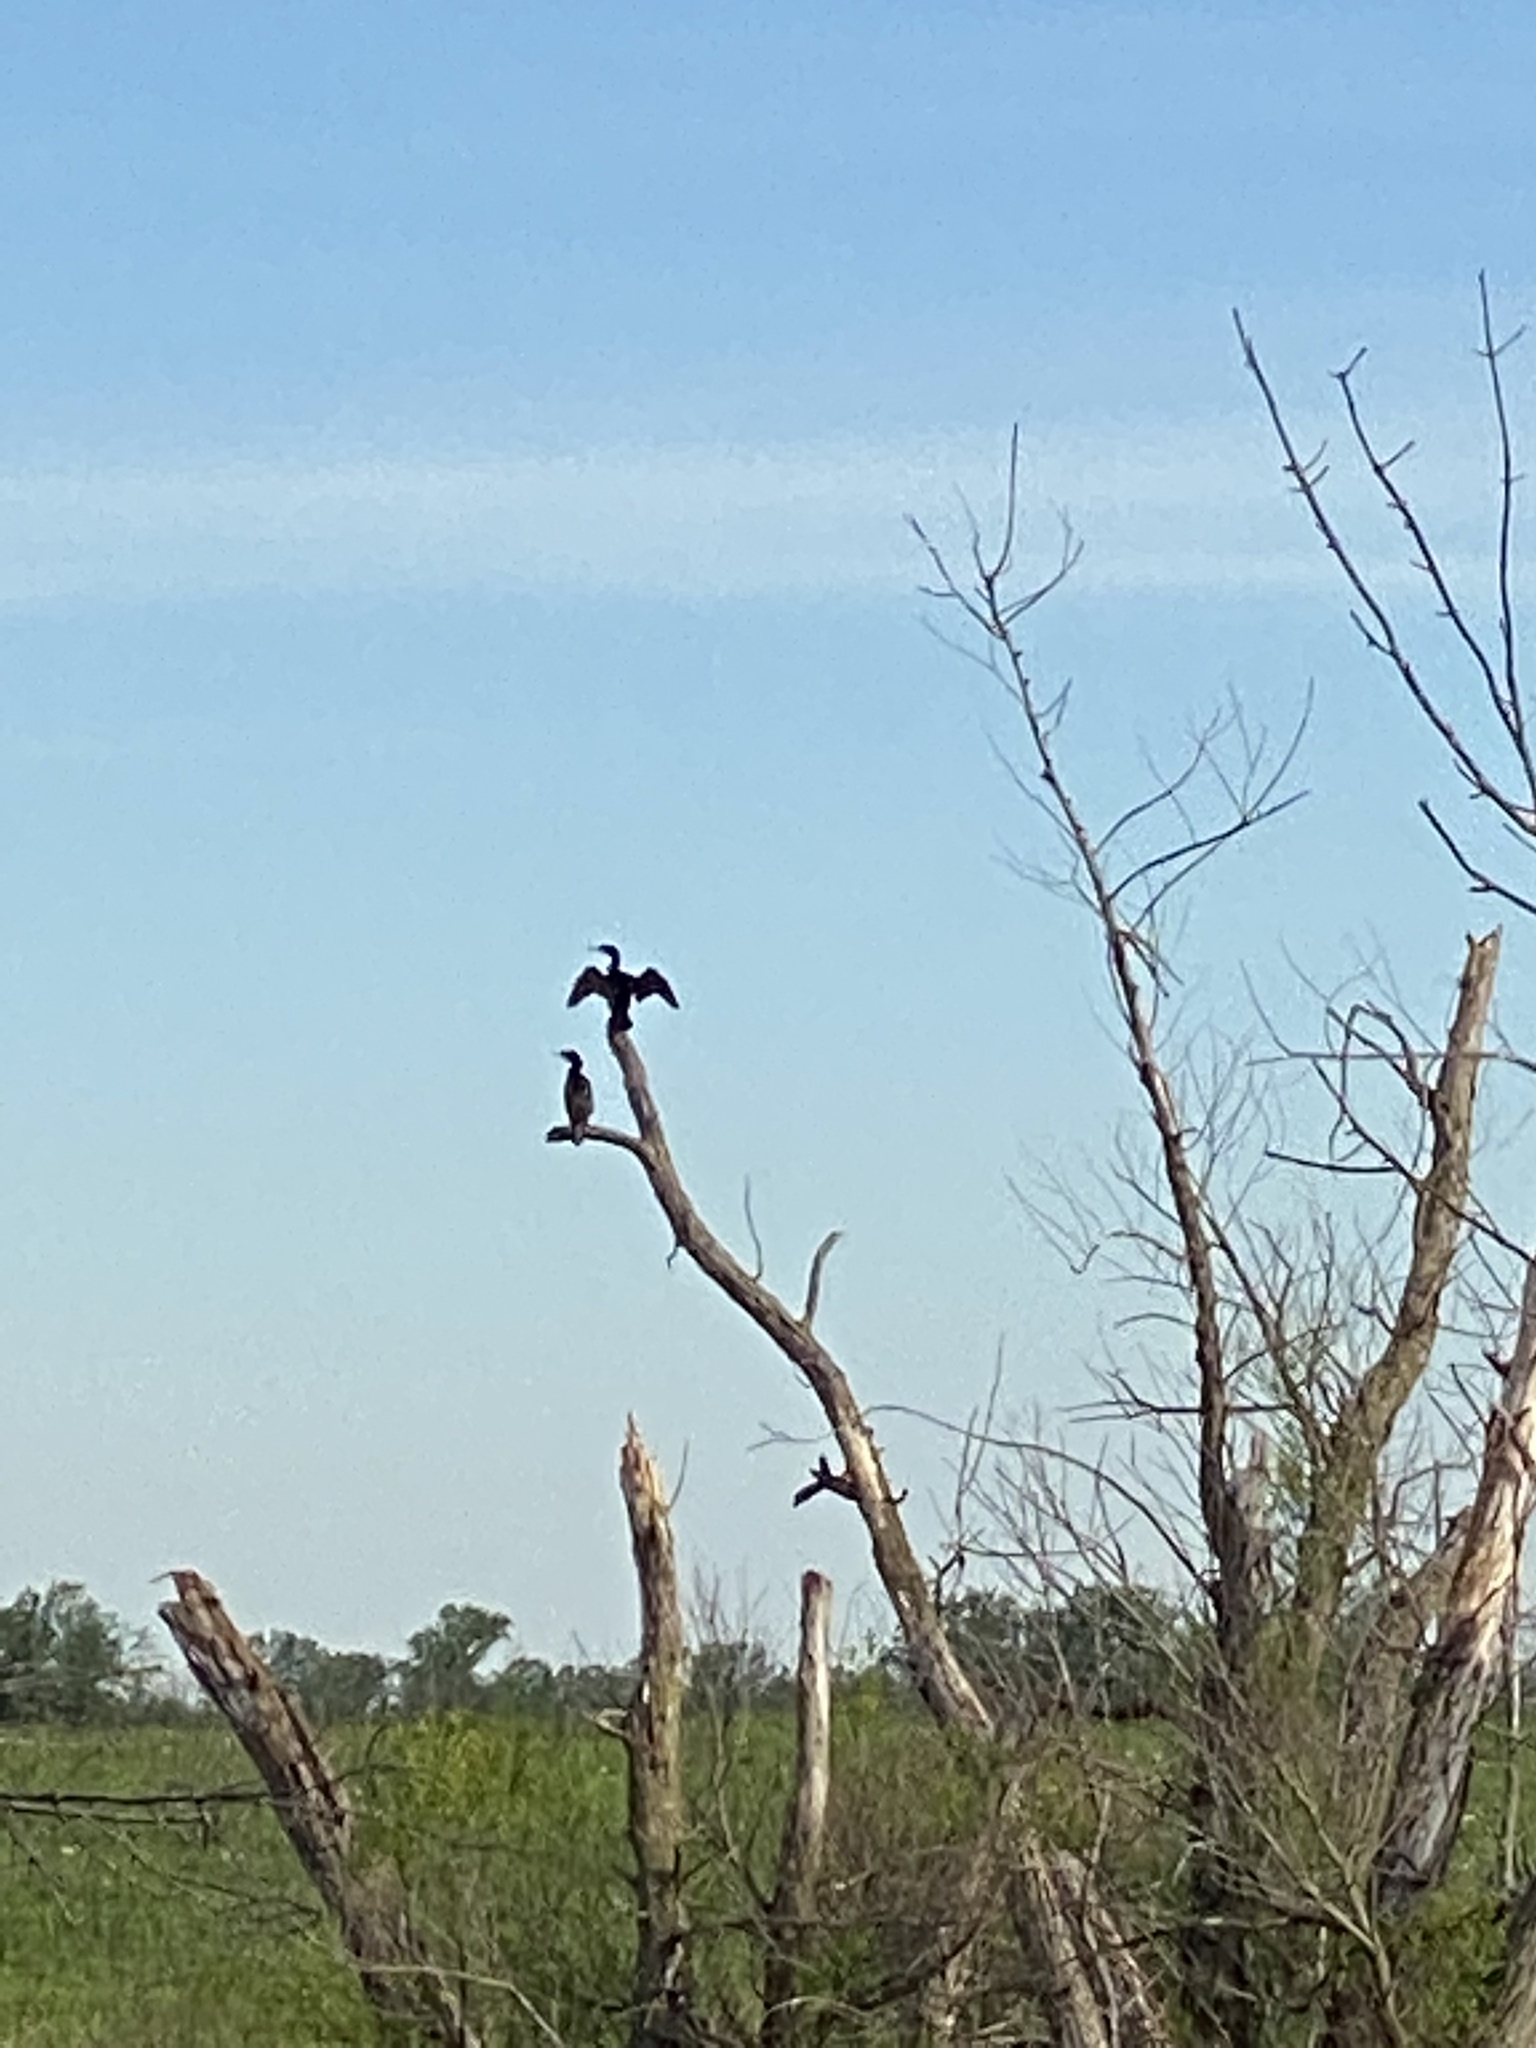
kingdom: Animalia
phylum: Chordata
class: Aves
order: Suliformes
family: Phalacrocoracidae
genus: Phalacrocorax
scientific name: Phalacrocorax auritus
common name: Double-crested cormorant
